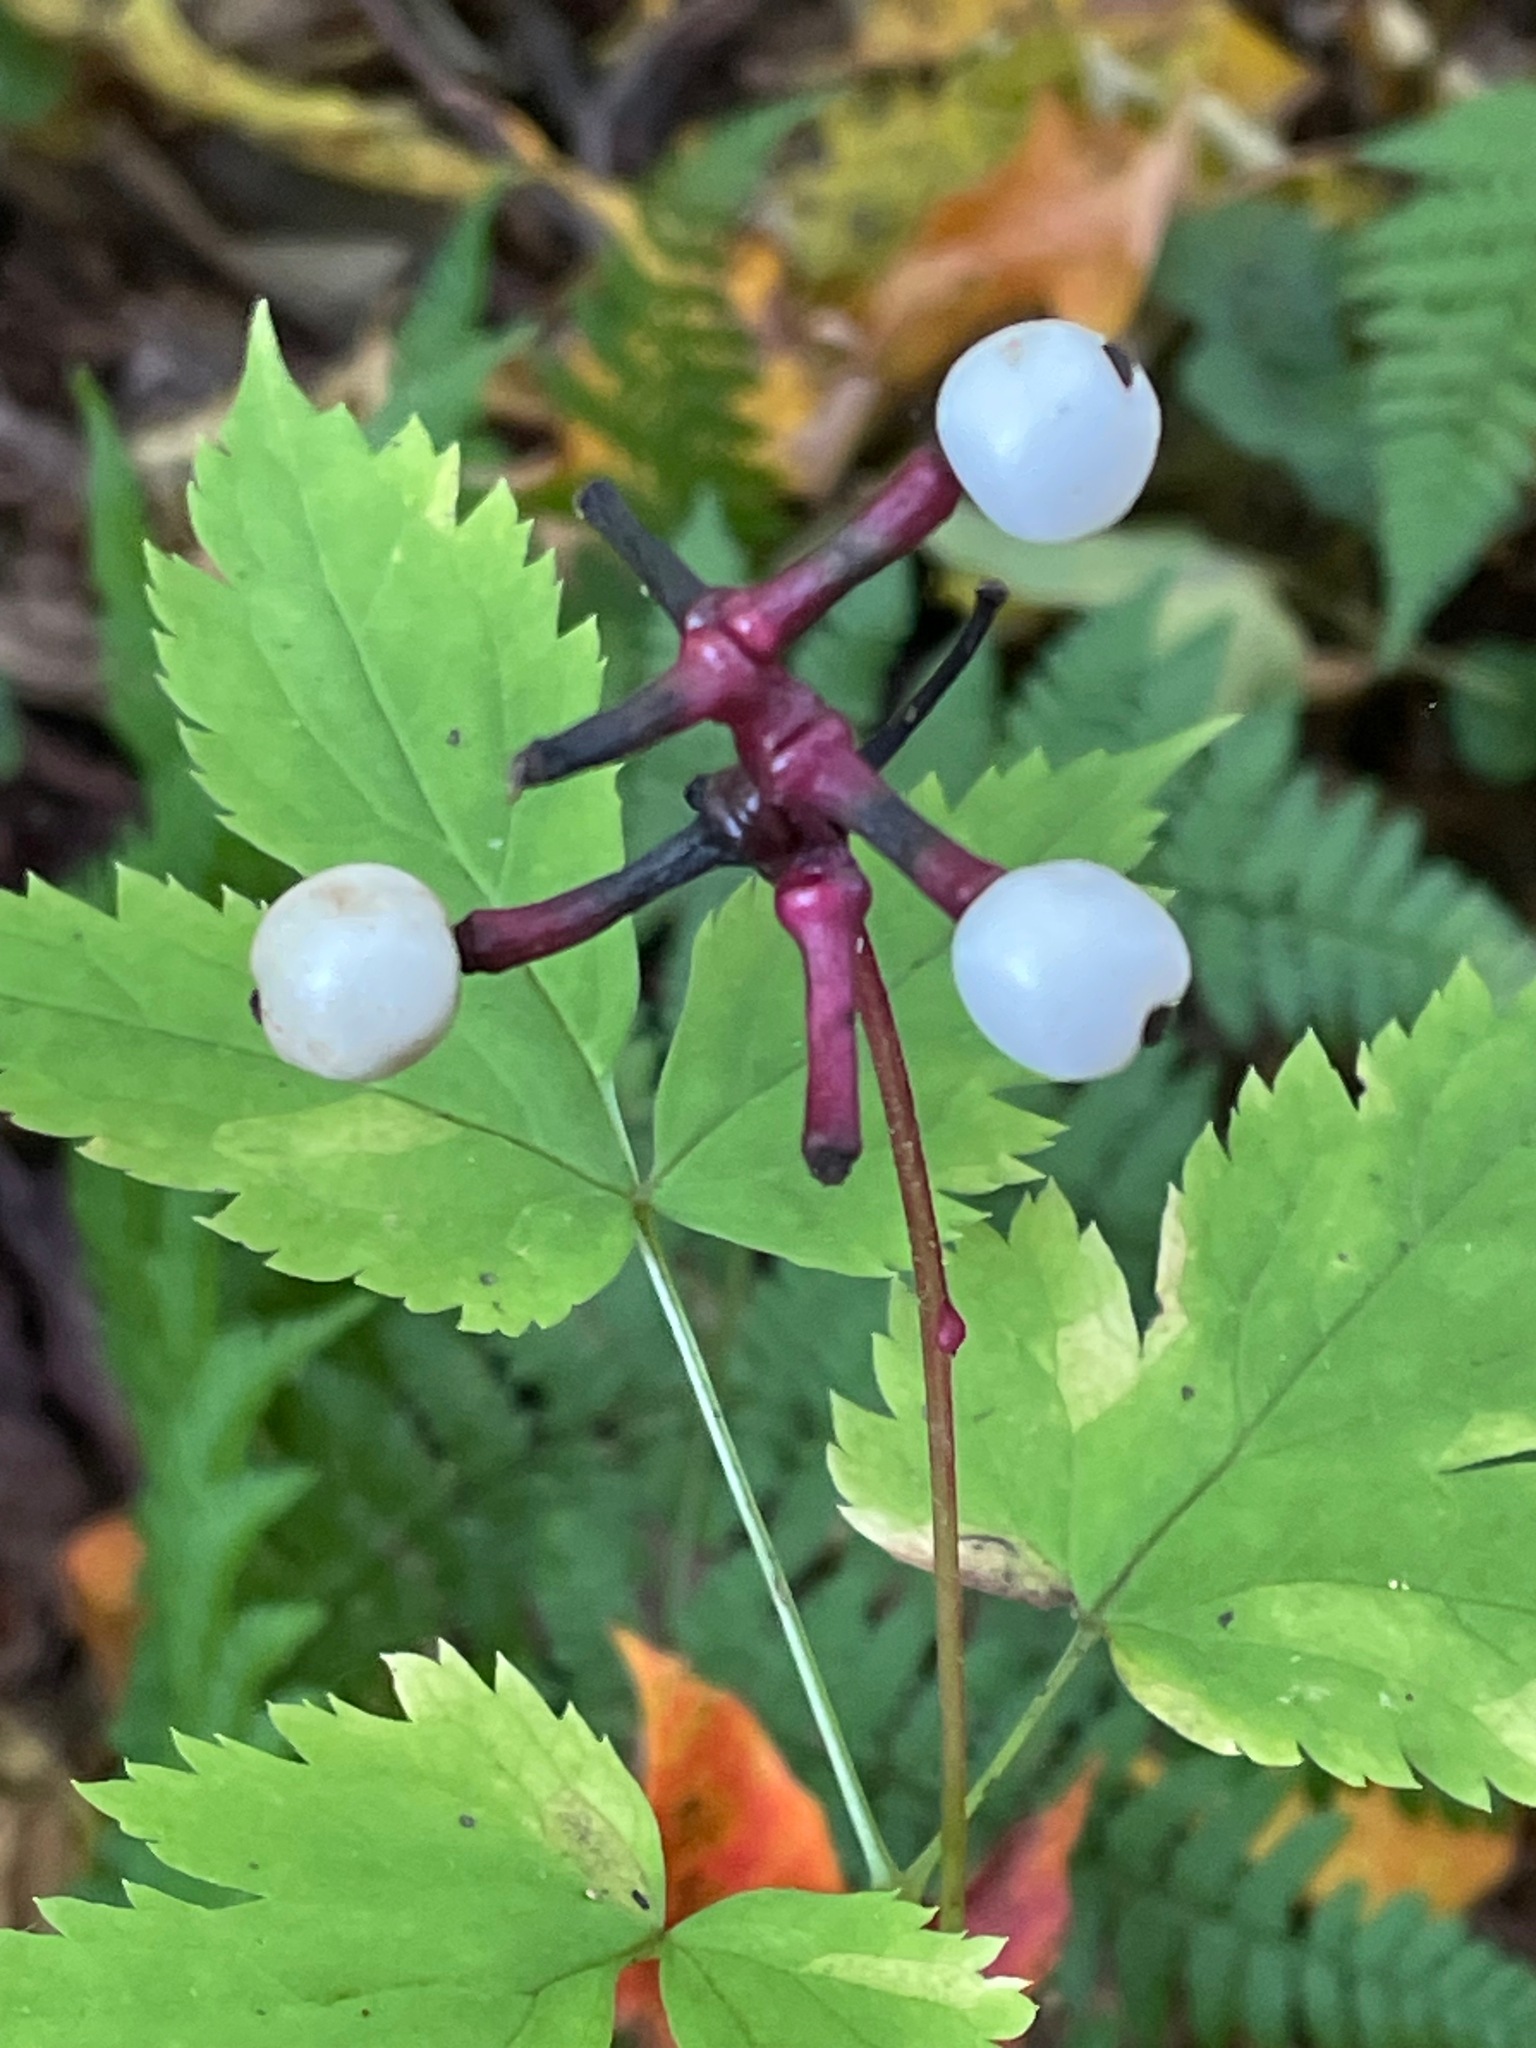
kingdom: Plantae
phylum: Tracheophyta
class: Magnoliopsida
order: Ranunculales
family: Ranunculaceae
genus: Actaea
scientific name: Actaea pachypoda
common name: Doll's-eyes
